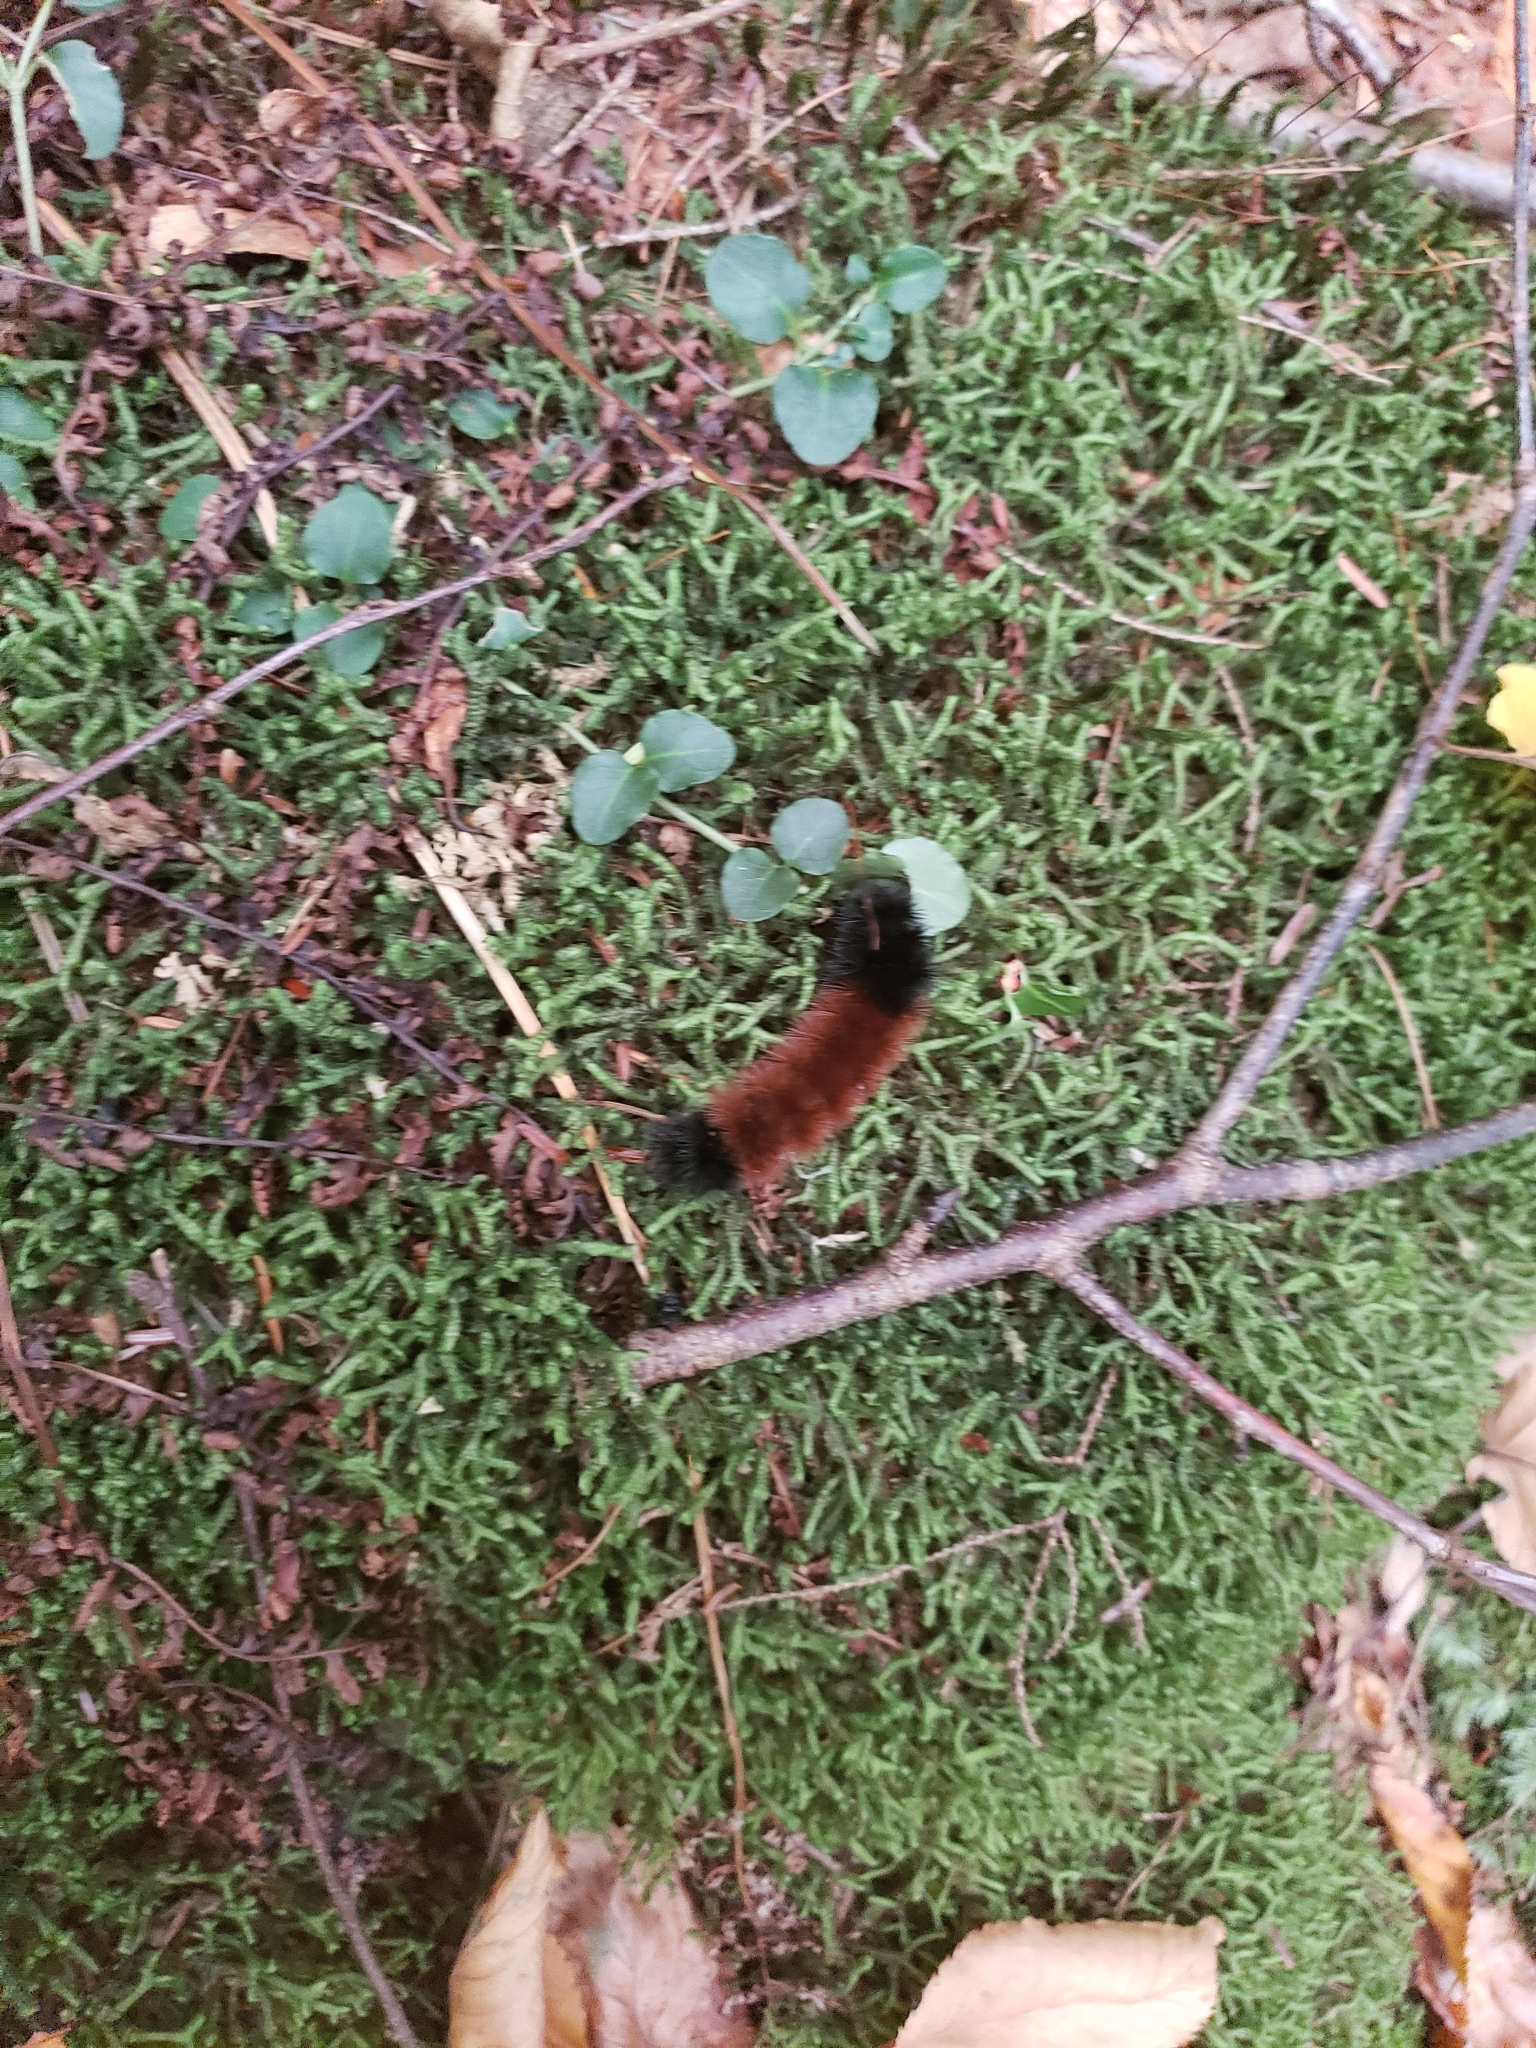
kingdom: Animalia
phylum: Arthropoda
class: Insecta
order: Lepidoptera
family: Erebidae
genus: Pyrrharctia
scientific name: Pyrrharctia isabella
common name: Isabella tiger moth
